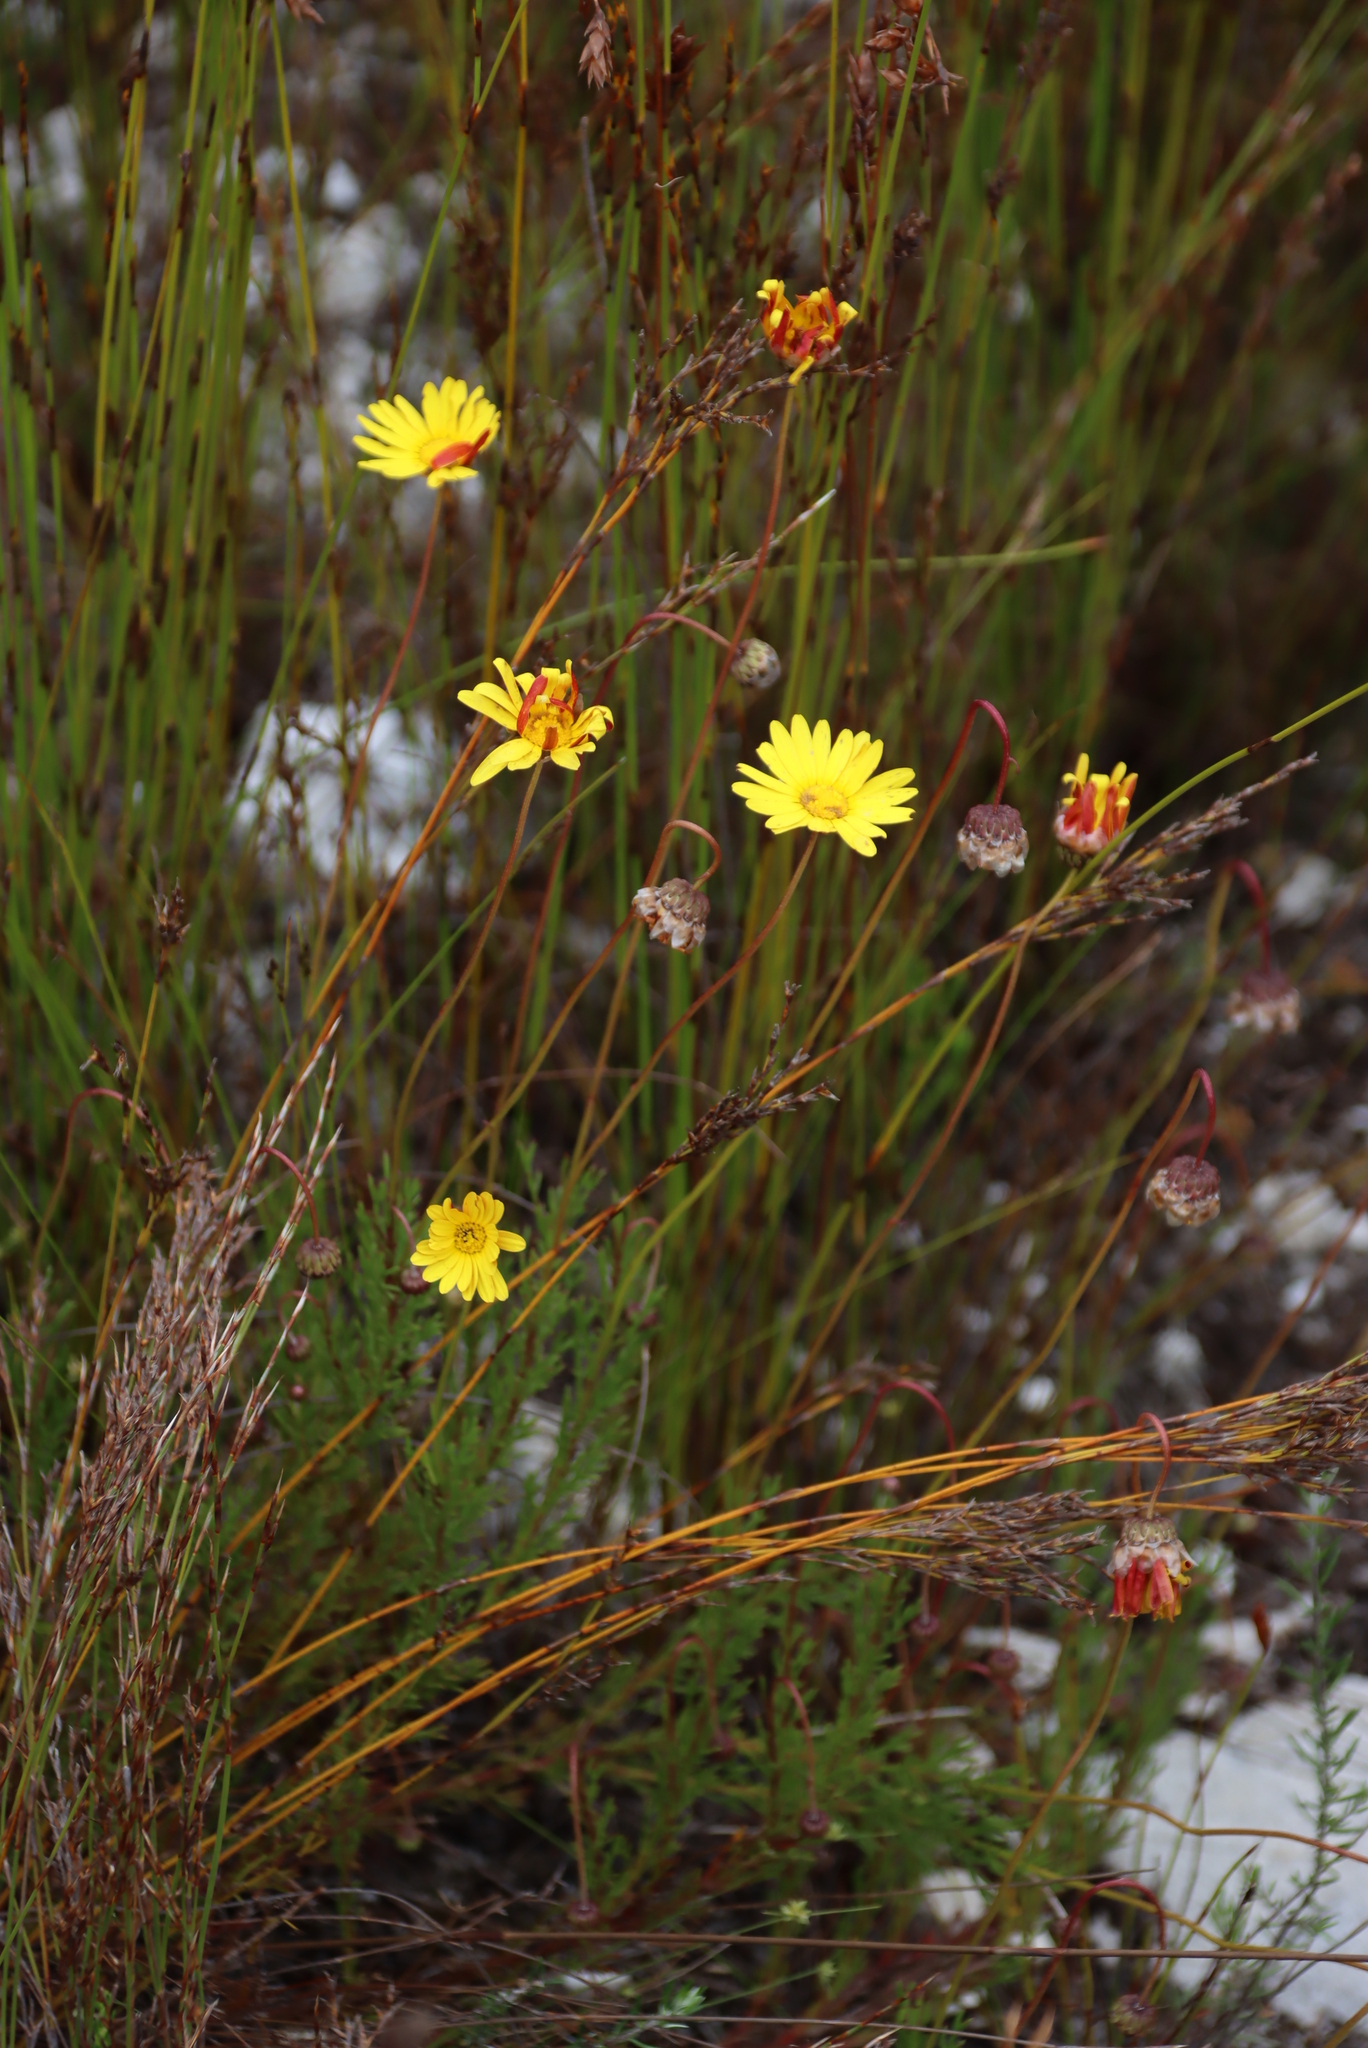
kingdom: Plantae
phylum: Tracheophyta
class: Magnoliopsida
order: Asterales
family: Asteraceae
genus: Ursinia
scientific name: Ursinia paleacea
